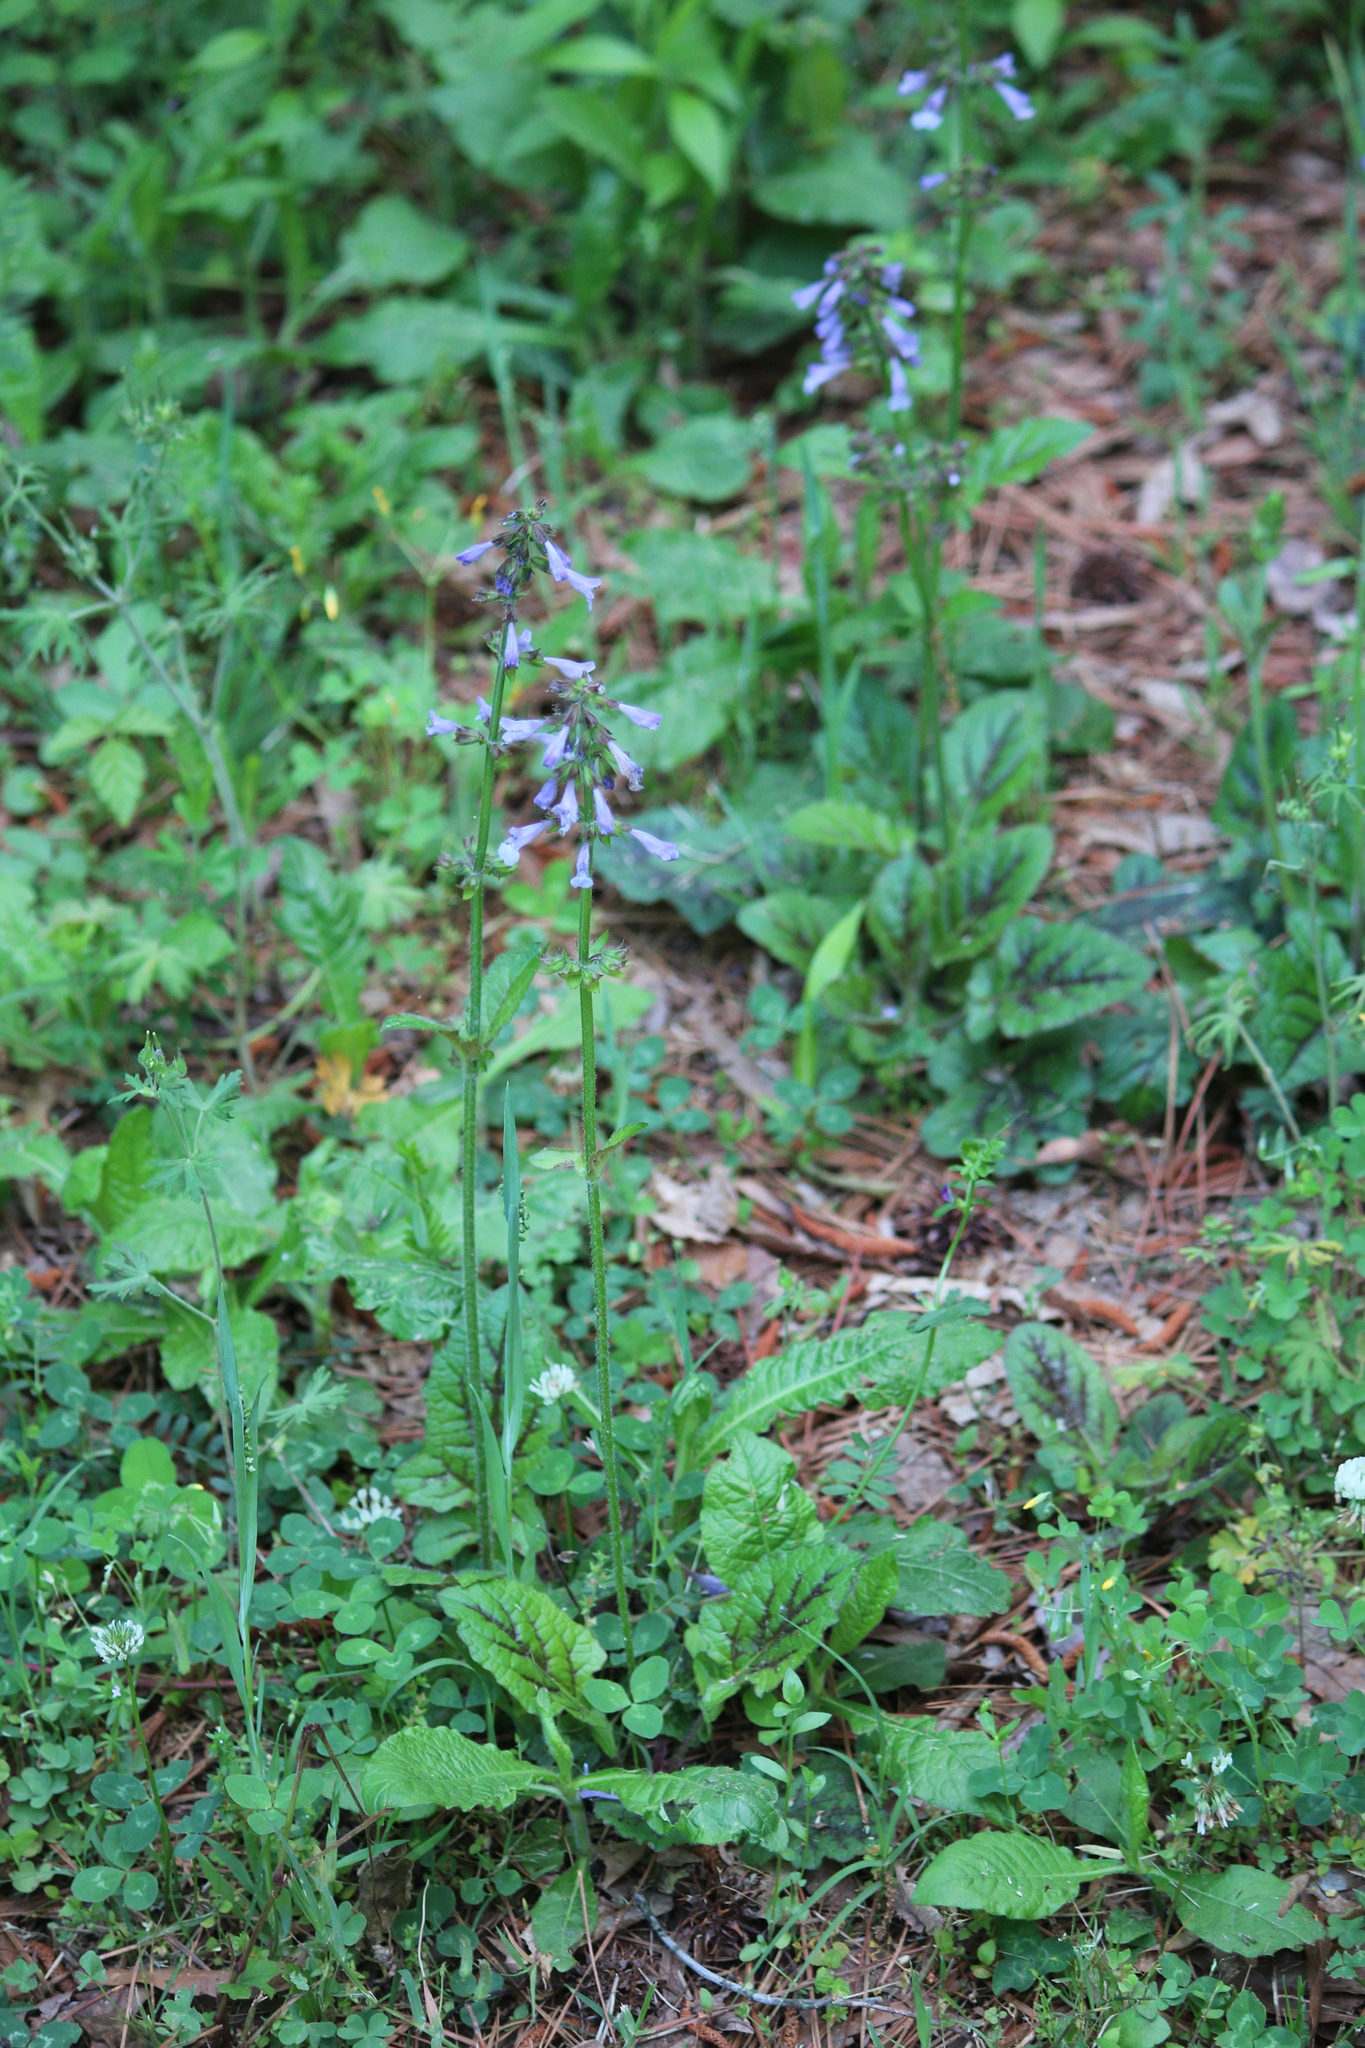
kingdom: Plantae
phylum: Tracheophyta
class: Magnoliopsida
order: Lamiales
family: Lamiaceae
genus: Salvia
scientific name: Salvia lyrata
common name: Cancerweed
